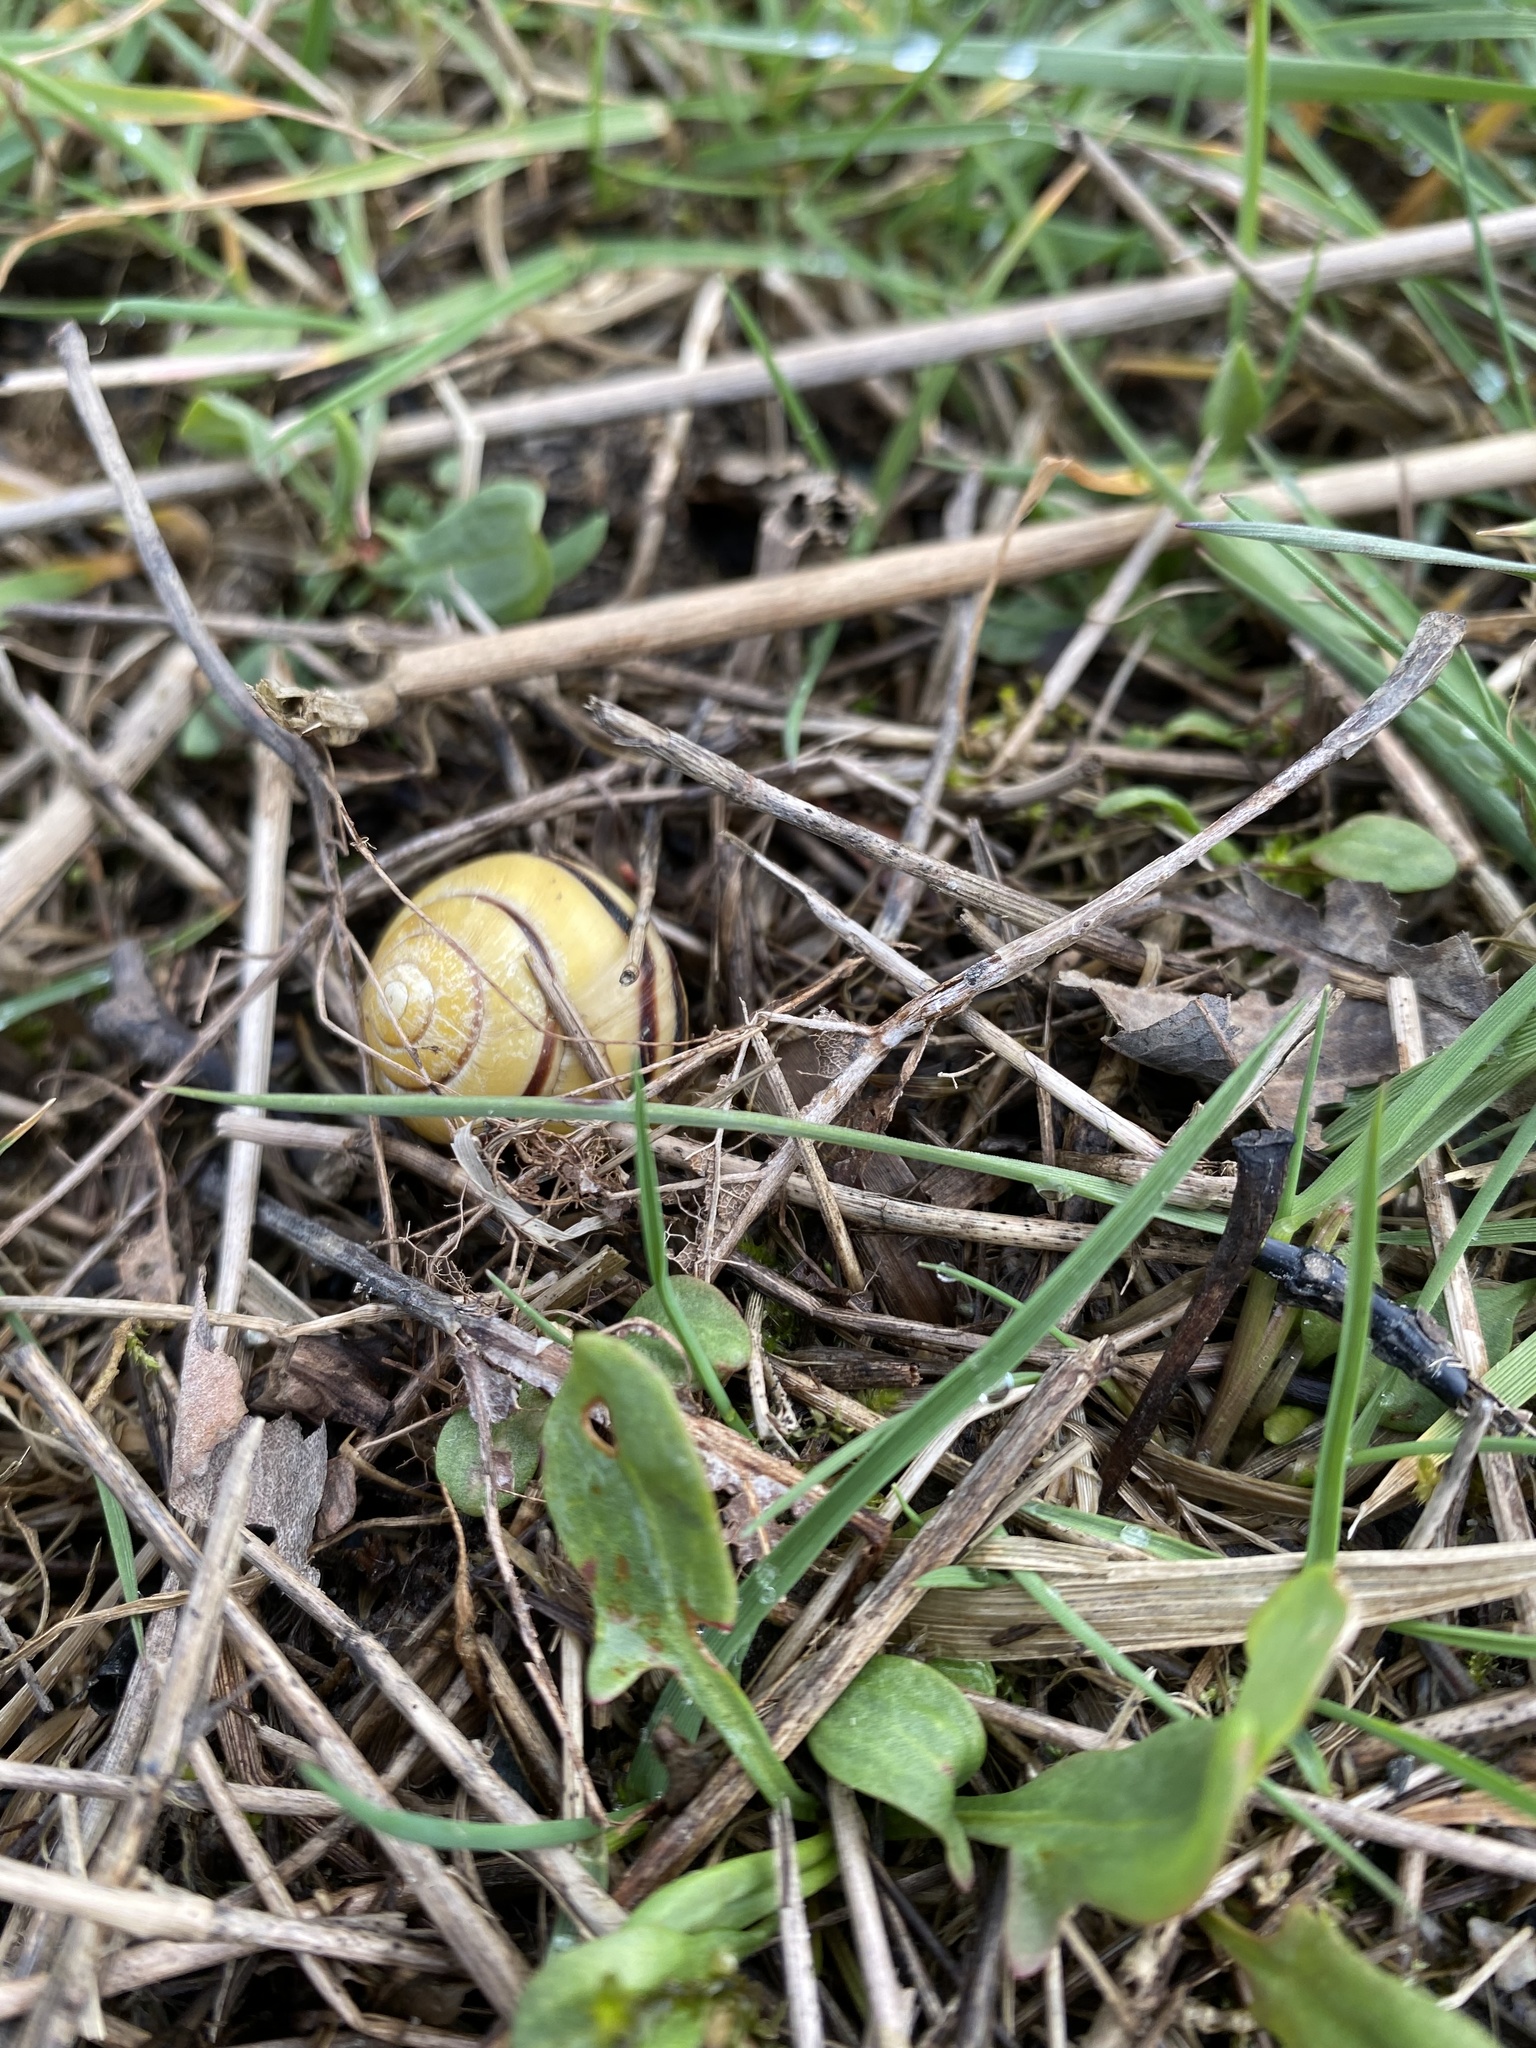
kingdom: Animalia
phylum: Mollusca
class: Gastropoda
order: Stylommatophora
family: Helicidae
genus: Cepaea
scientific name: Cepaea nemoralis
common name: Grovesnail
